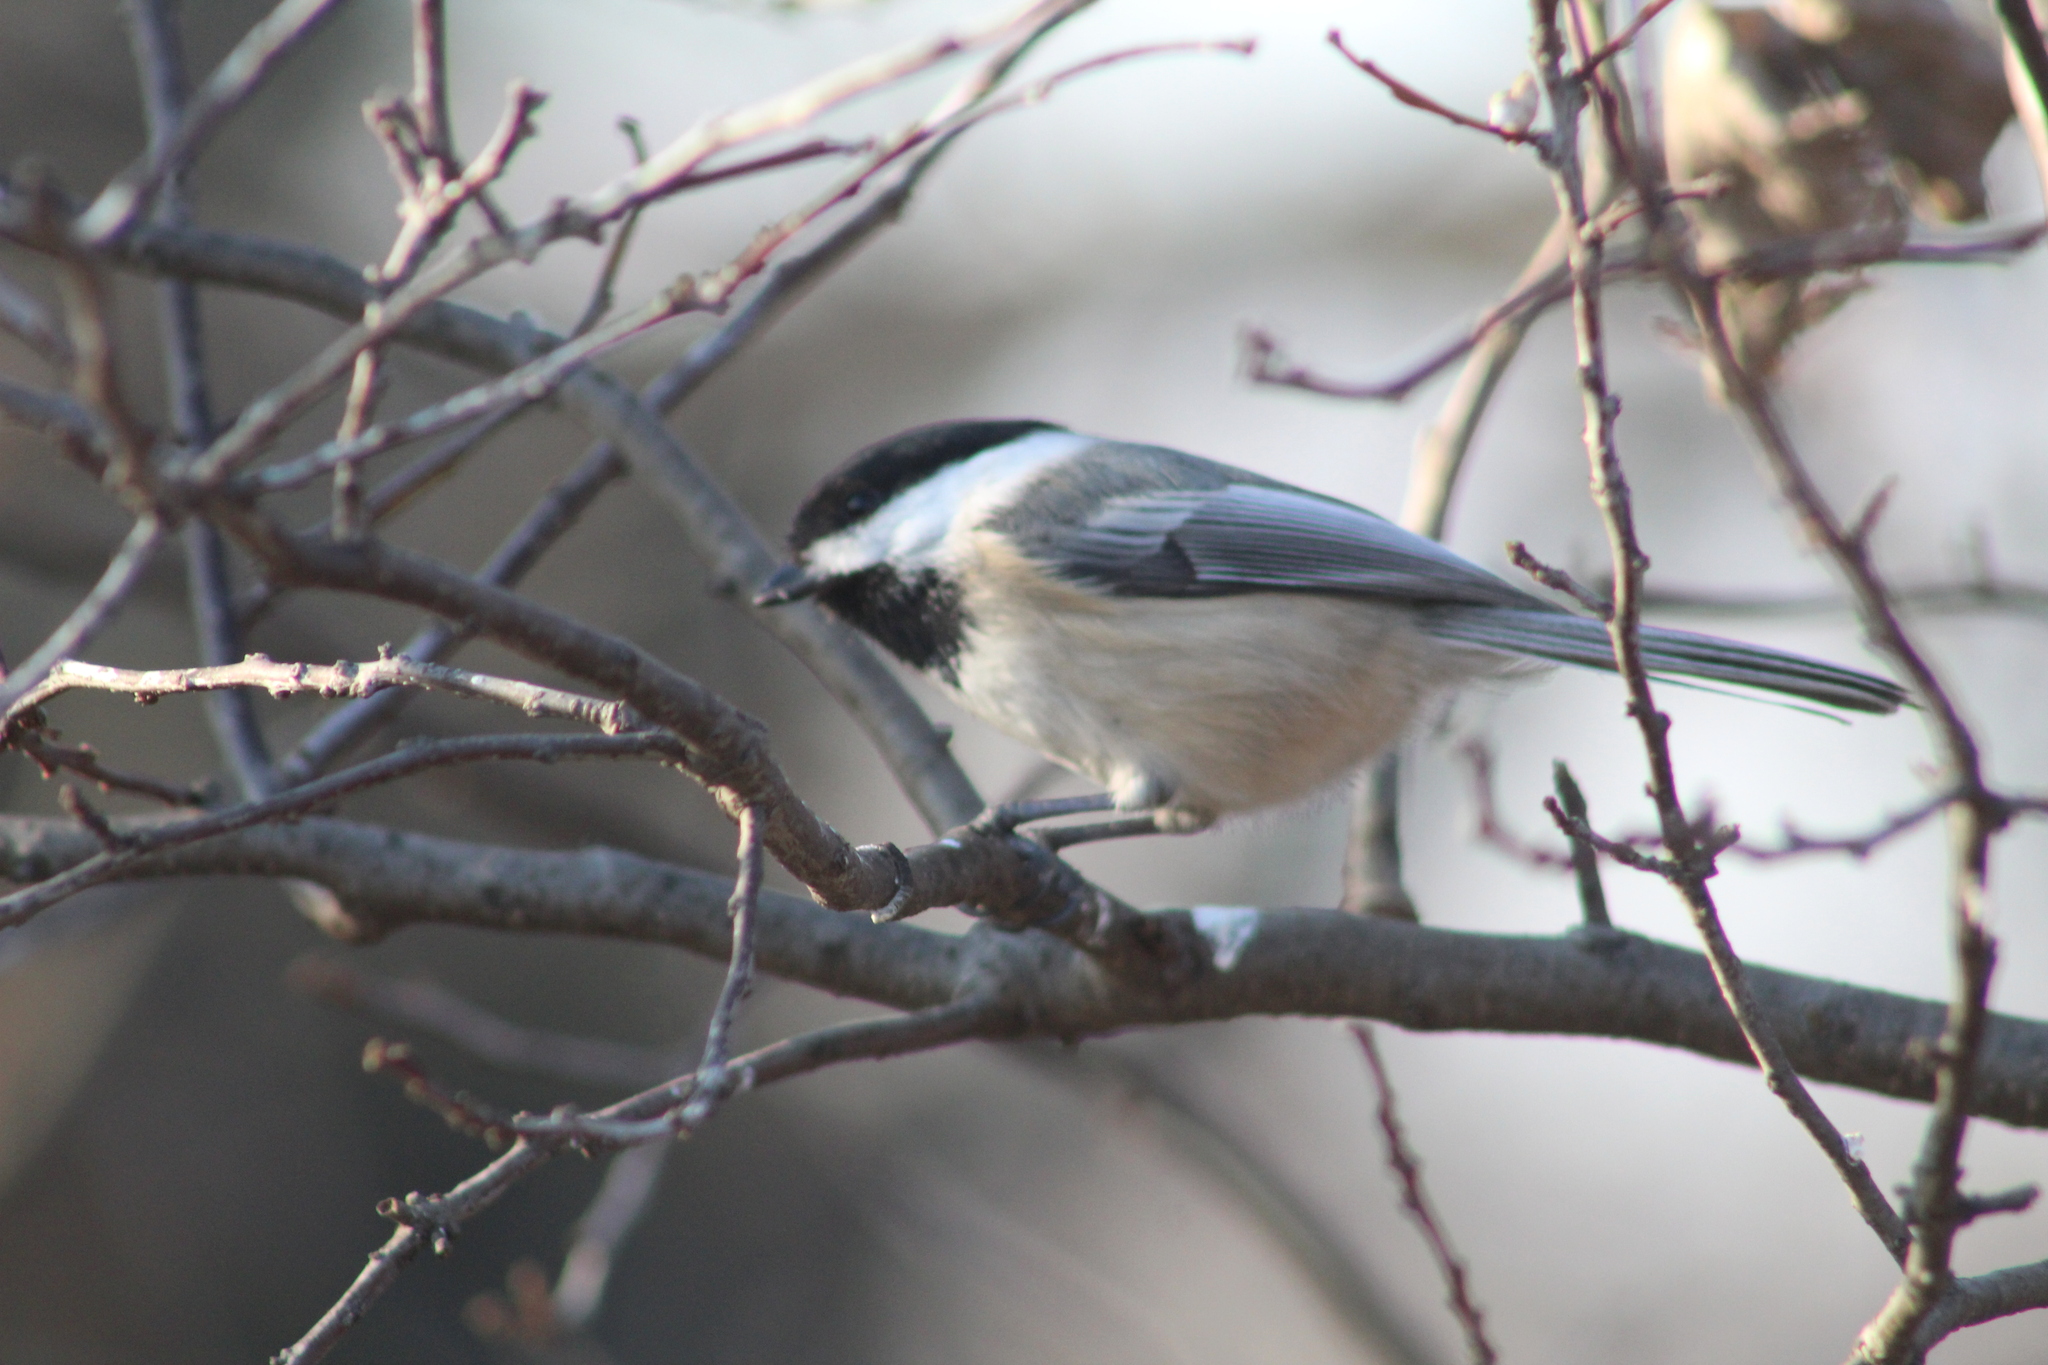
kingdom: Animalia
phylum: Chordata
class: Aves
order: Passeriformes
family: Paridae
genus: Poecile
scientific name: Poecile atricapillus
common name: Black-capped chickadee
